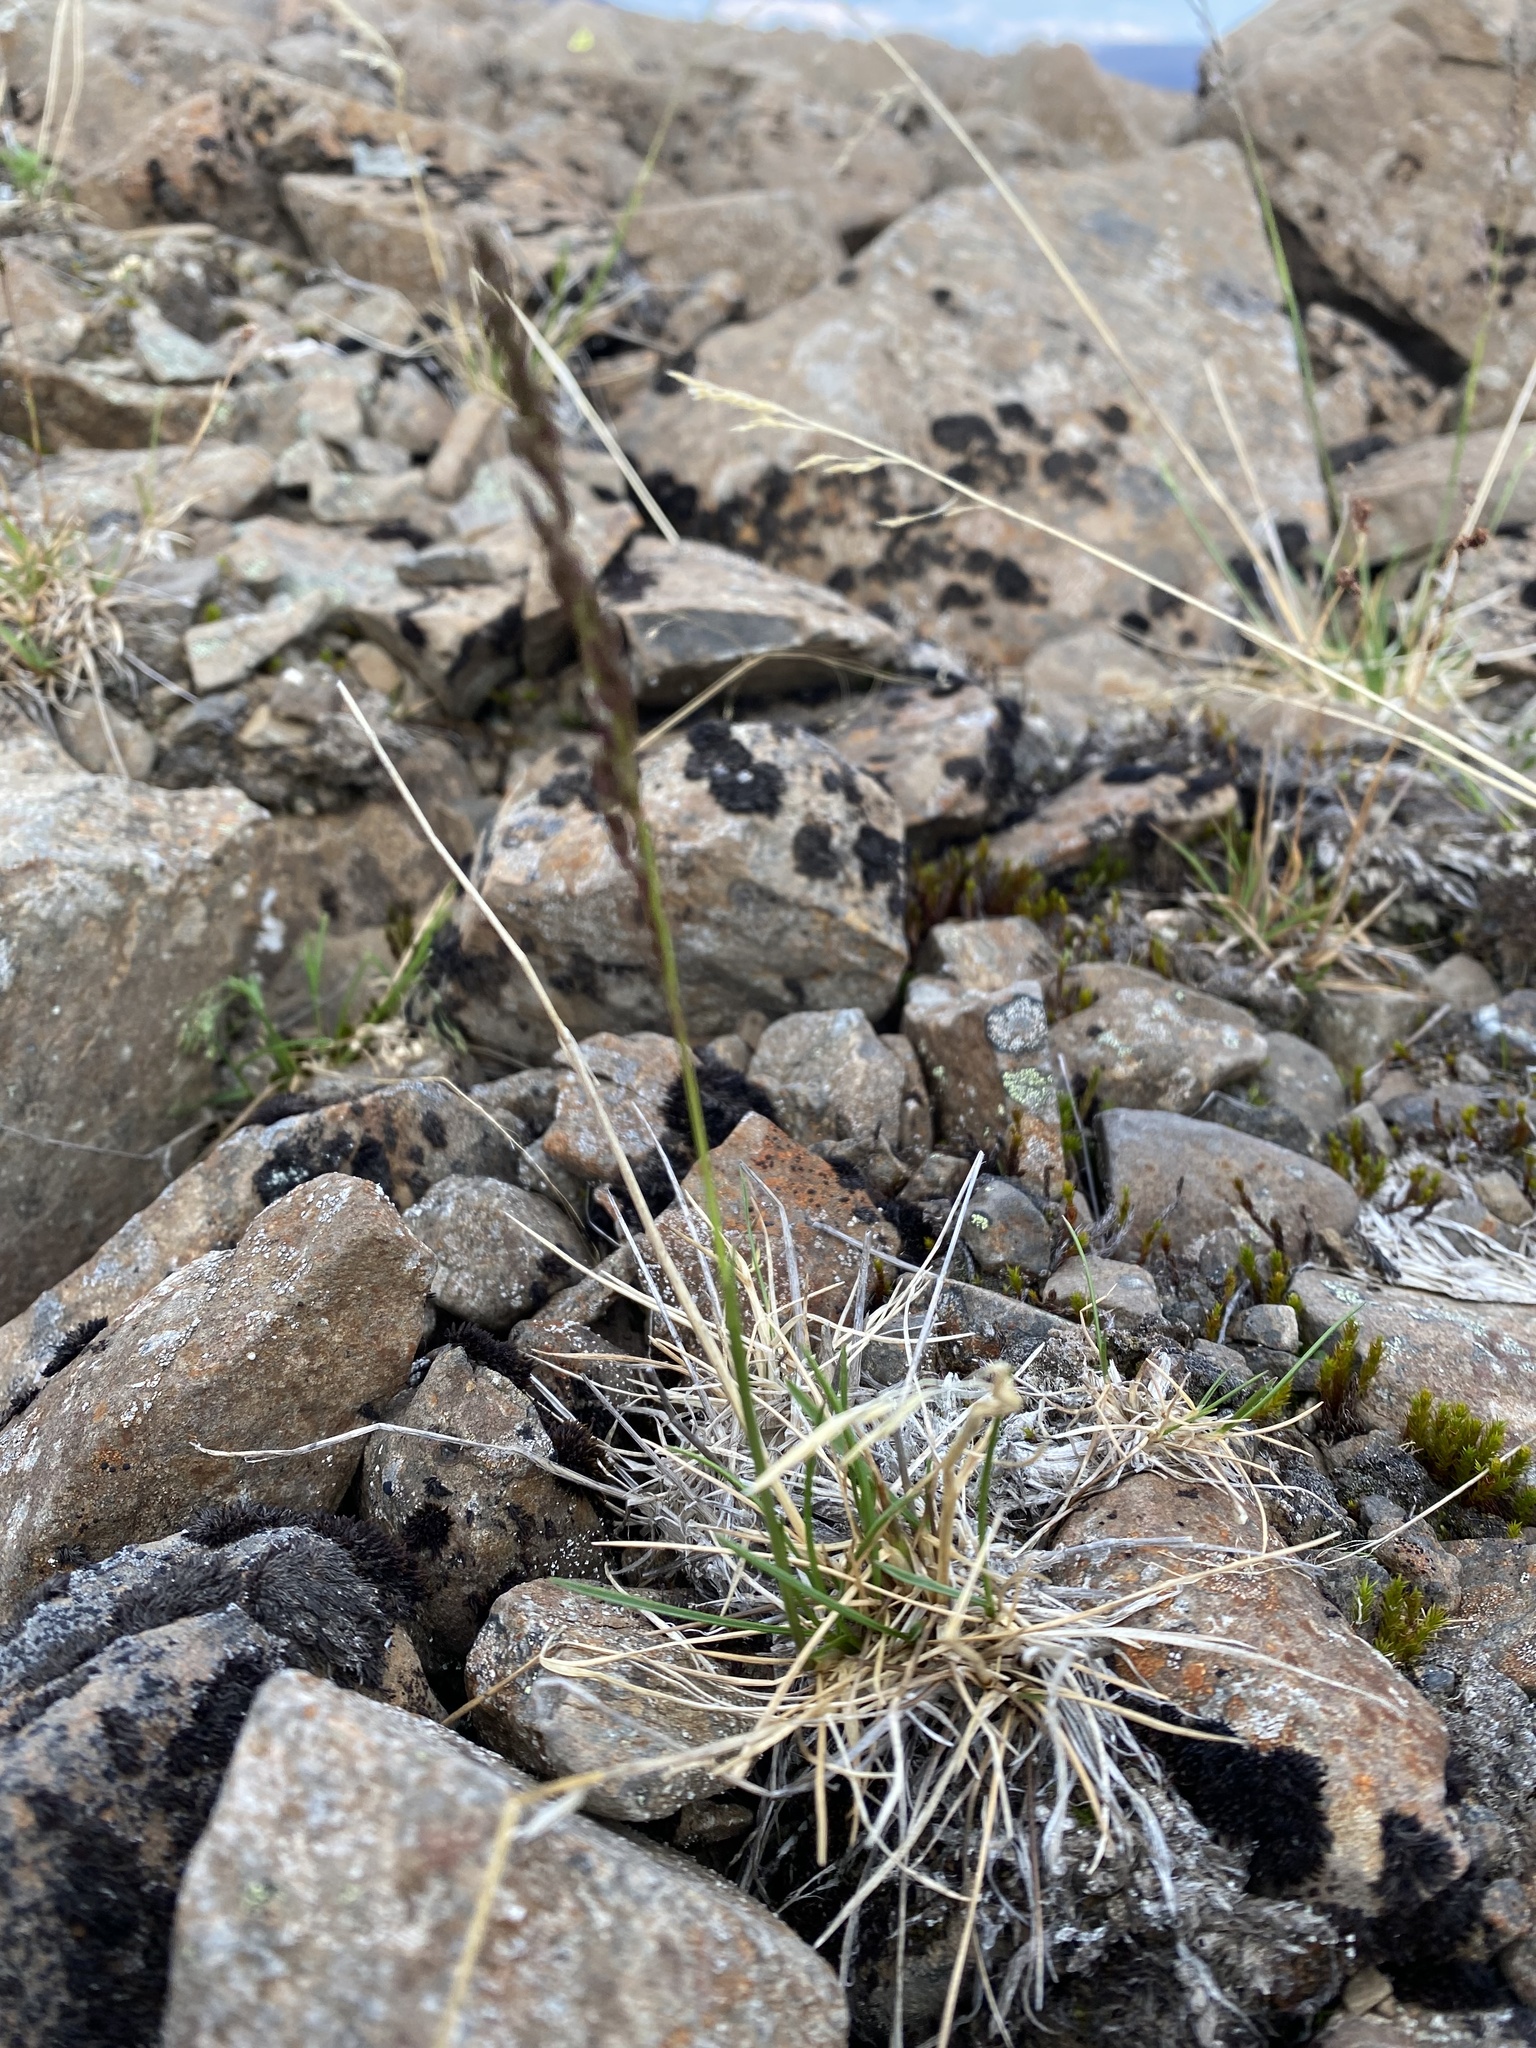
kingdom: Plantae
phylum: Tracheophyta
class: Liliopsida
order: Poales
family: Poaceae
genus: Deschampsia
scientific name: Deschampsia cespitosa
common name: Tufted hair-grass
